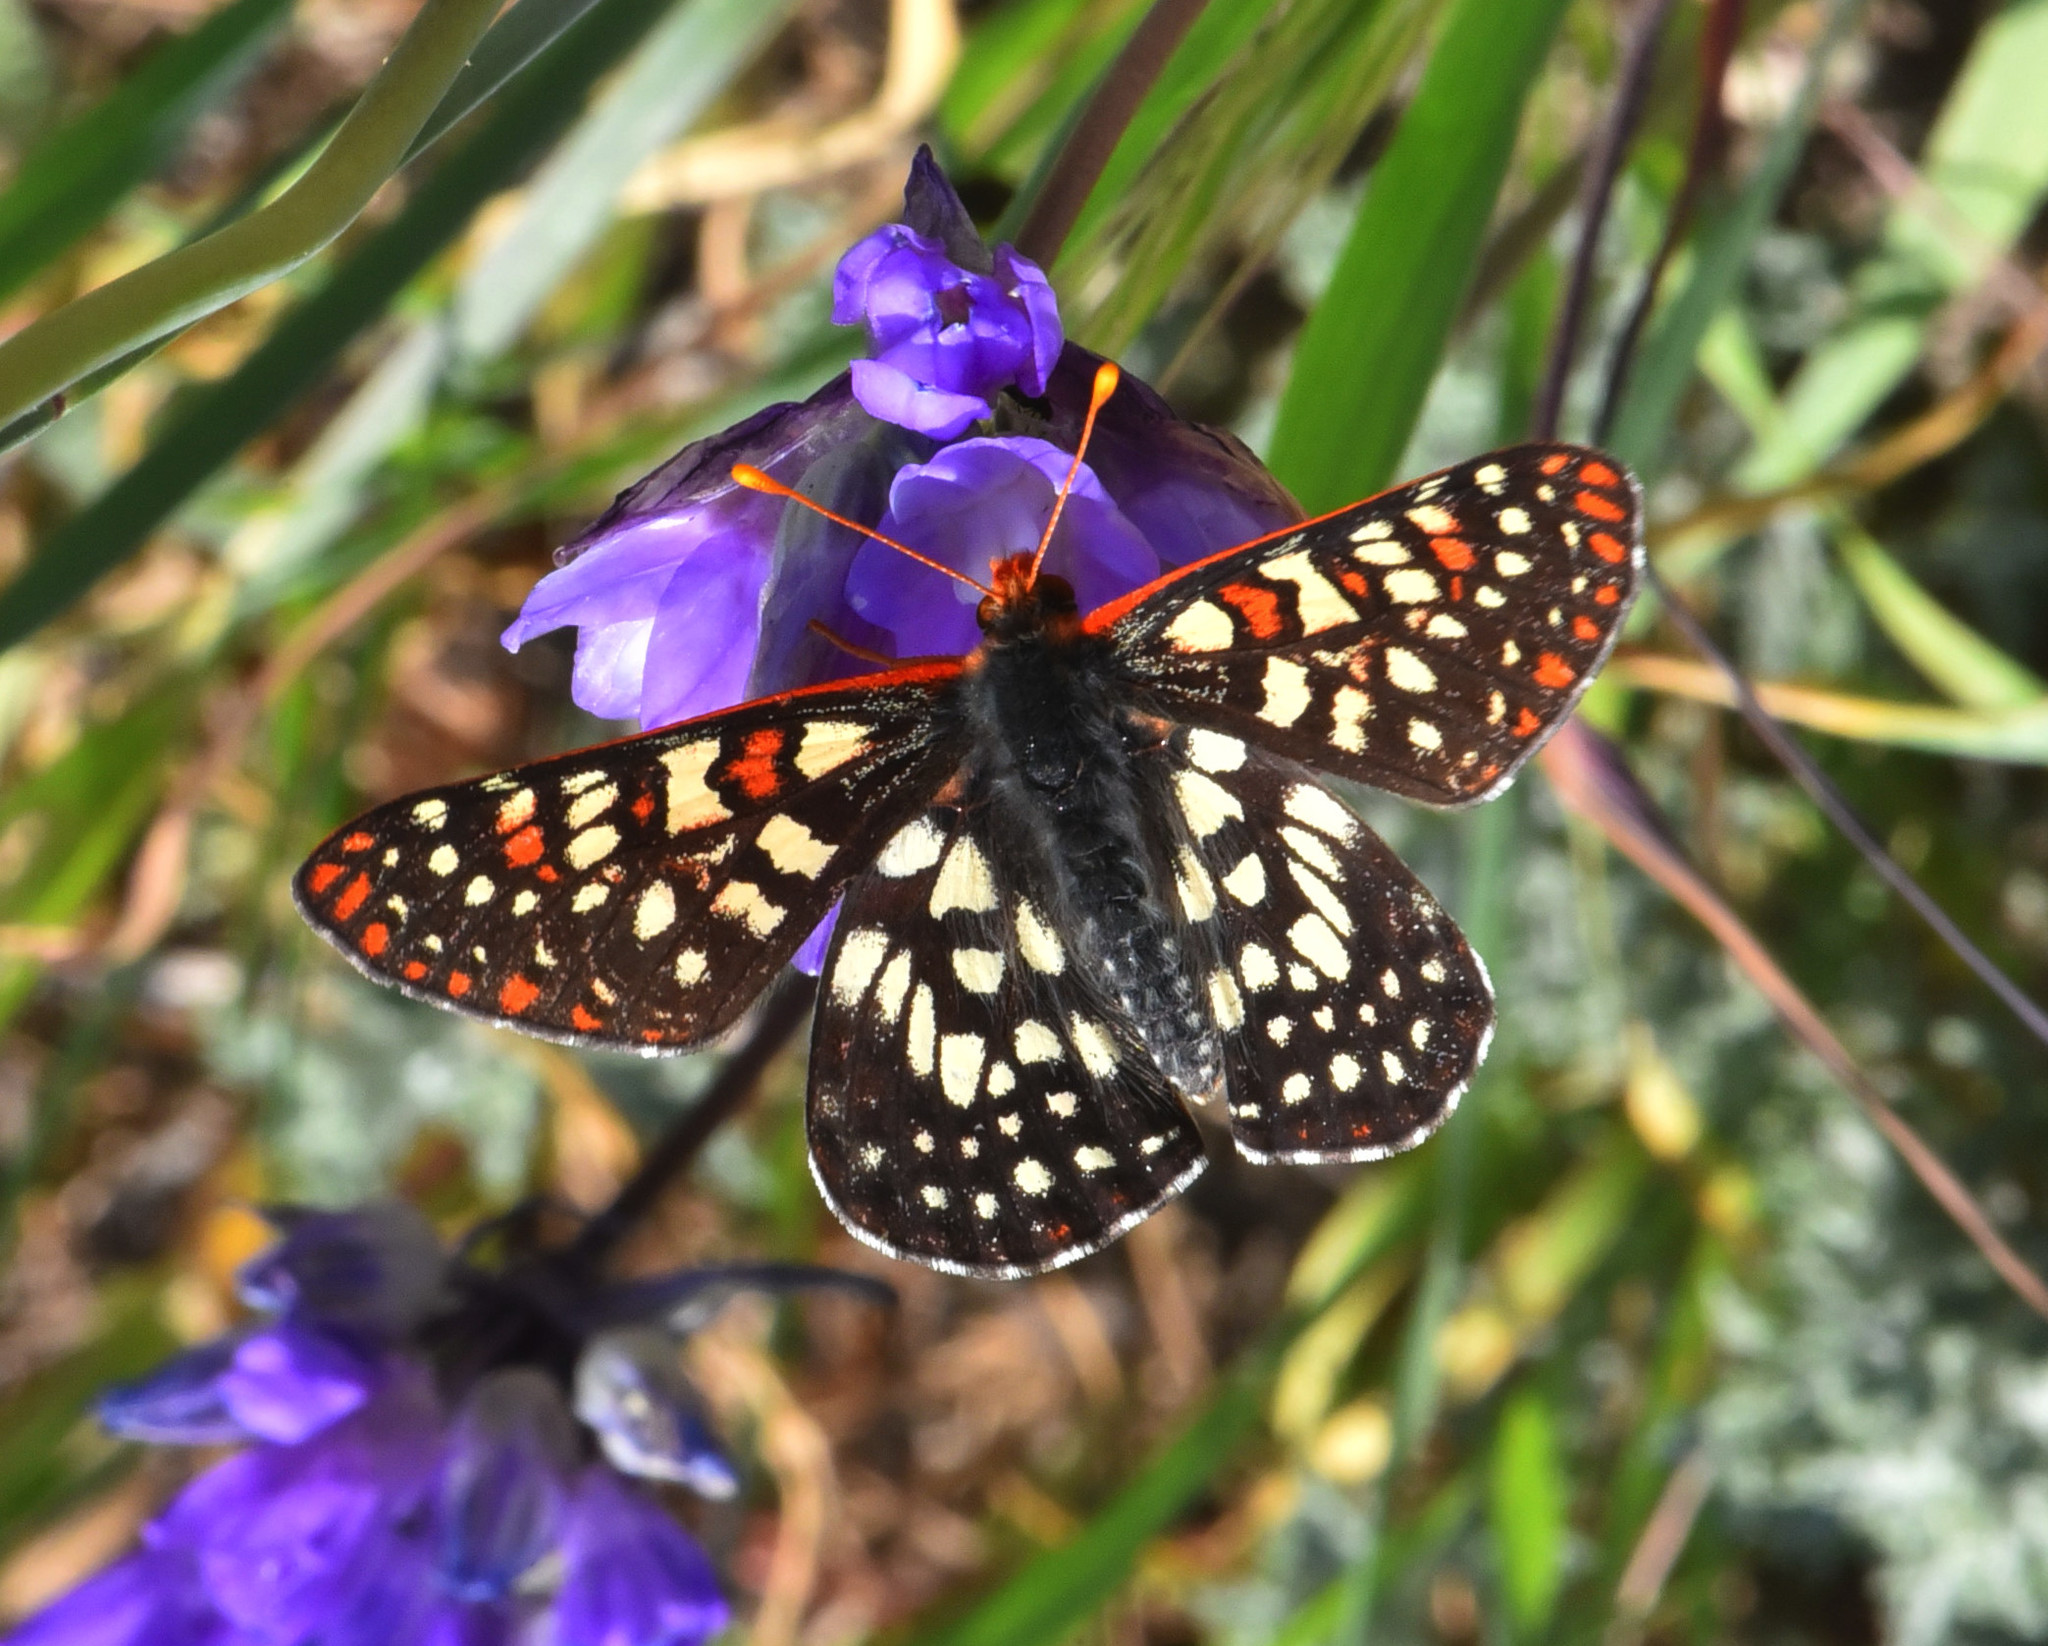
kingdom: Animalia
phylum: Arthropoda
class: Insecta
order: Lepidoptera
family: Nymphalidae
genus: Occidryas
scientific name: Occidryas chalcedona
